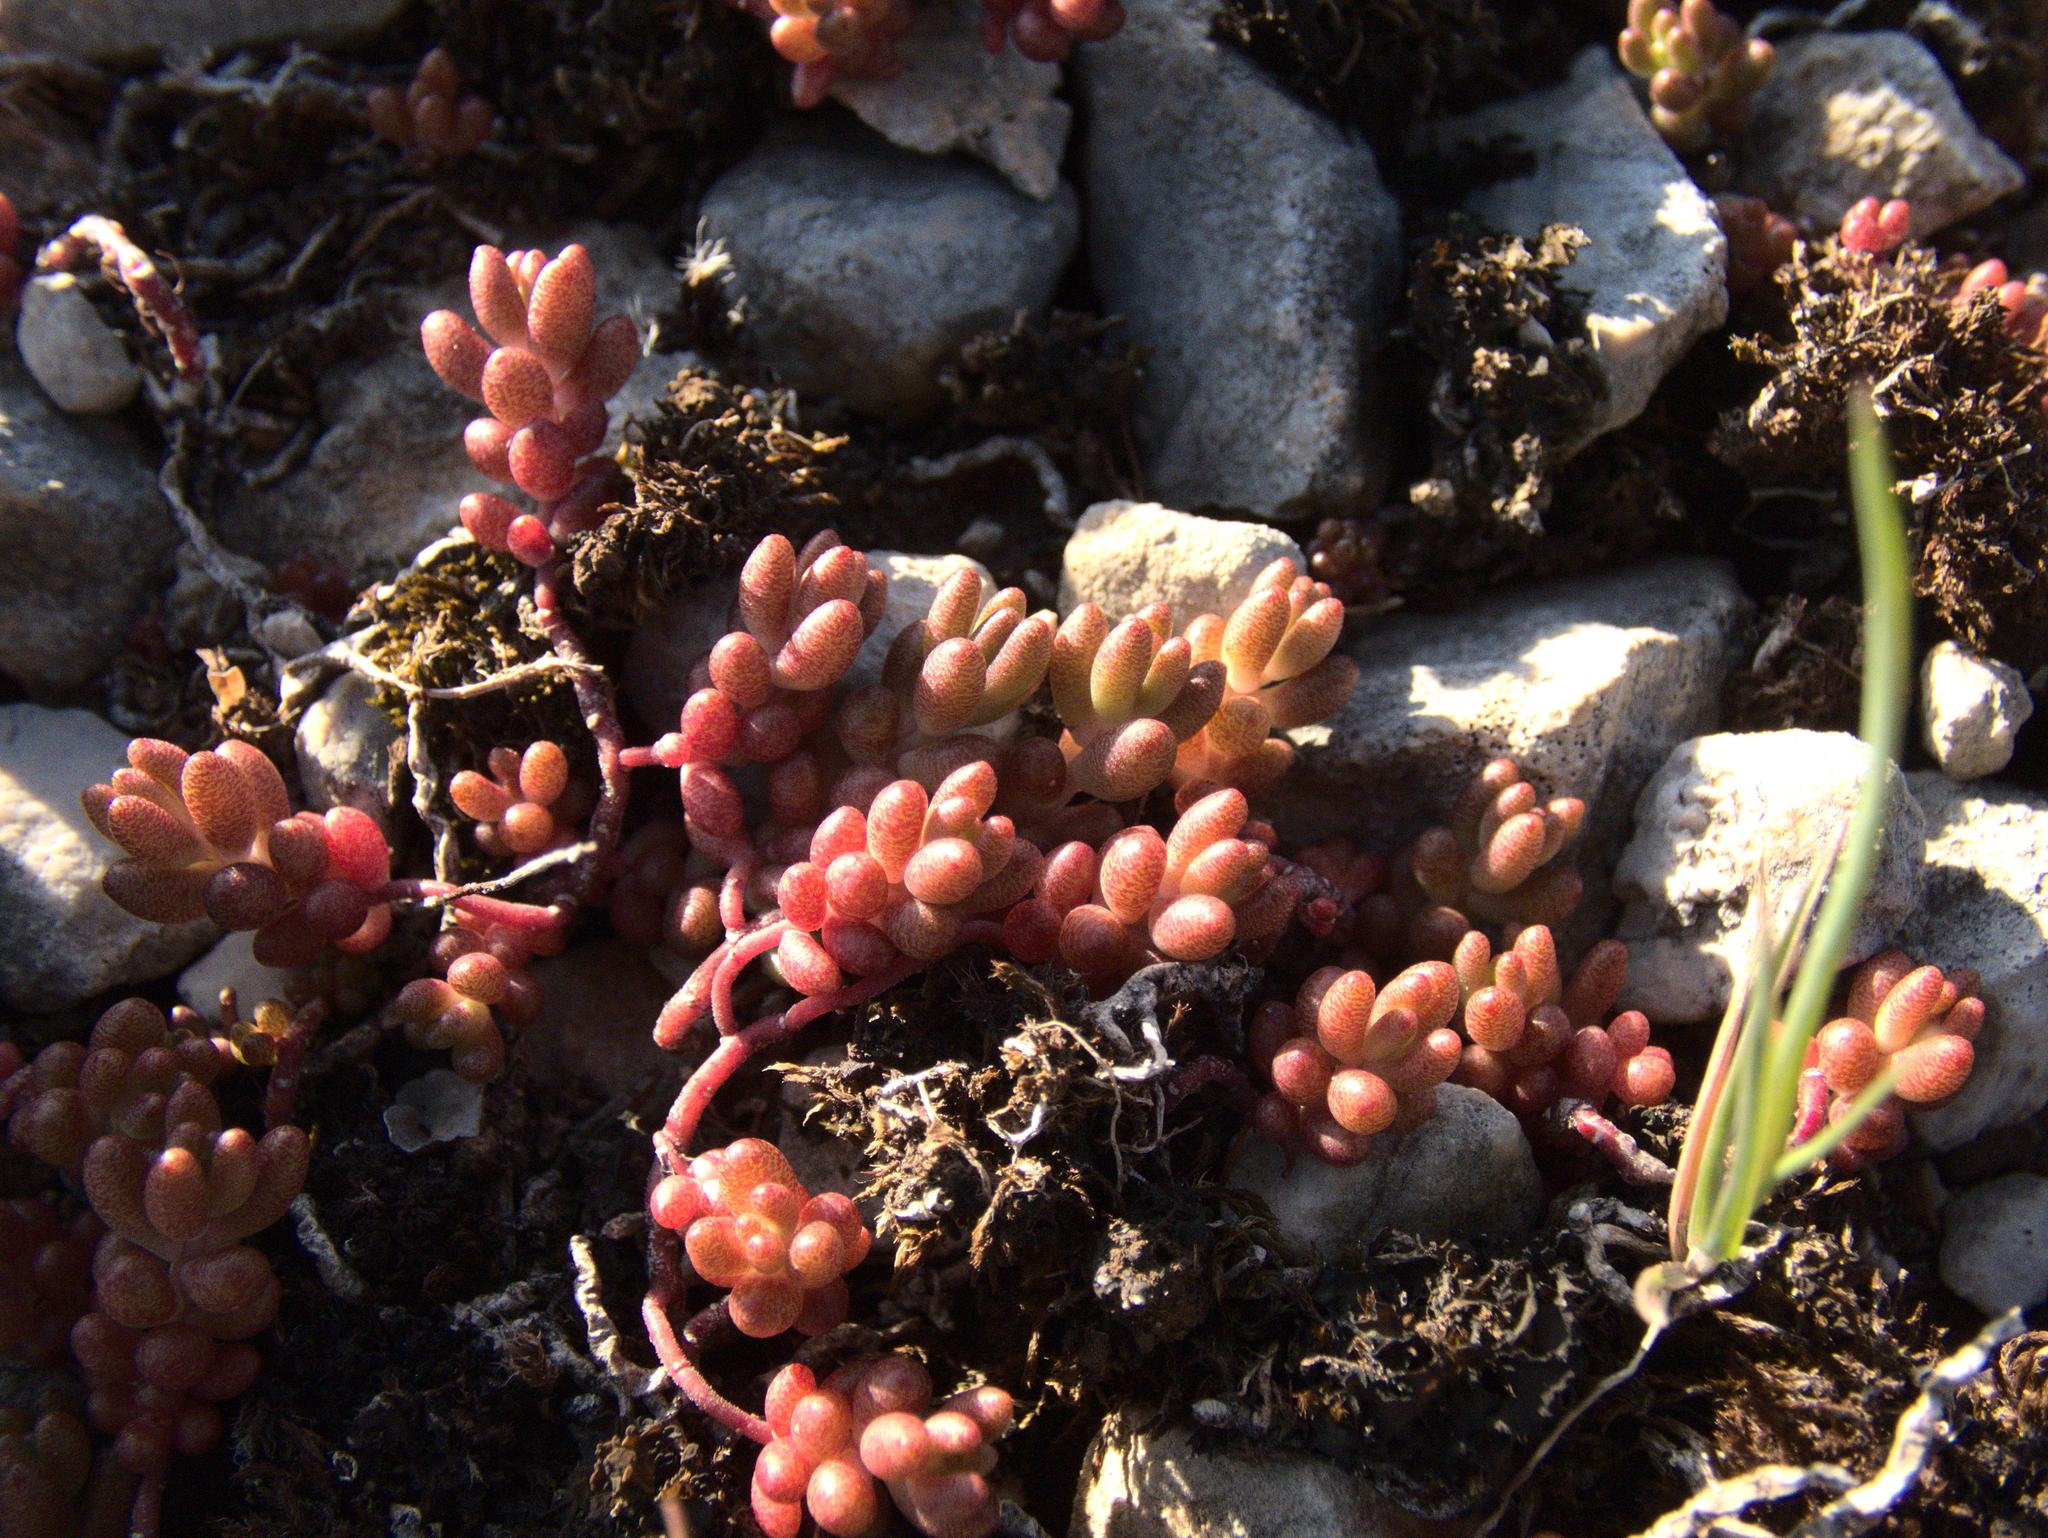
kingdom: Plantae
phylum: Tracheophyta
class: Magnoliopsida
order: Saxifragales
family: Crassulaceae
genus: Sedum
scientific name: Sedum album
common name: White stonecrop
